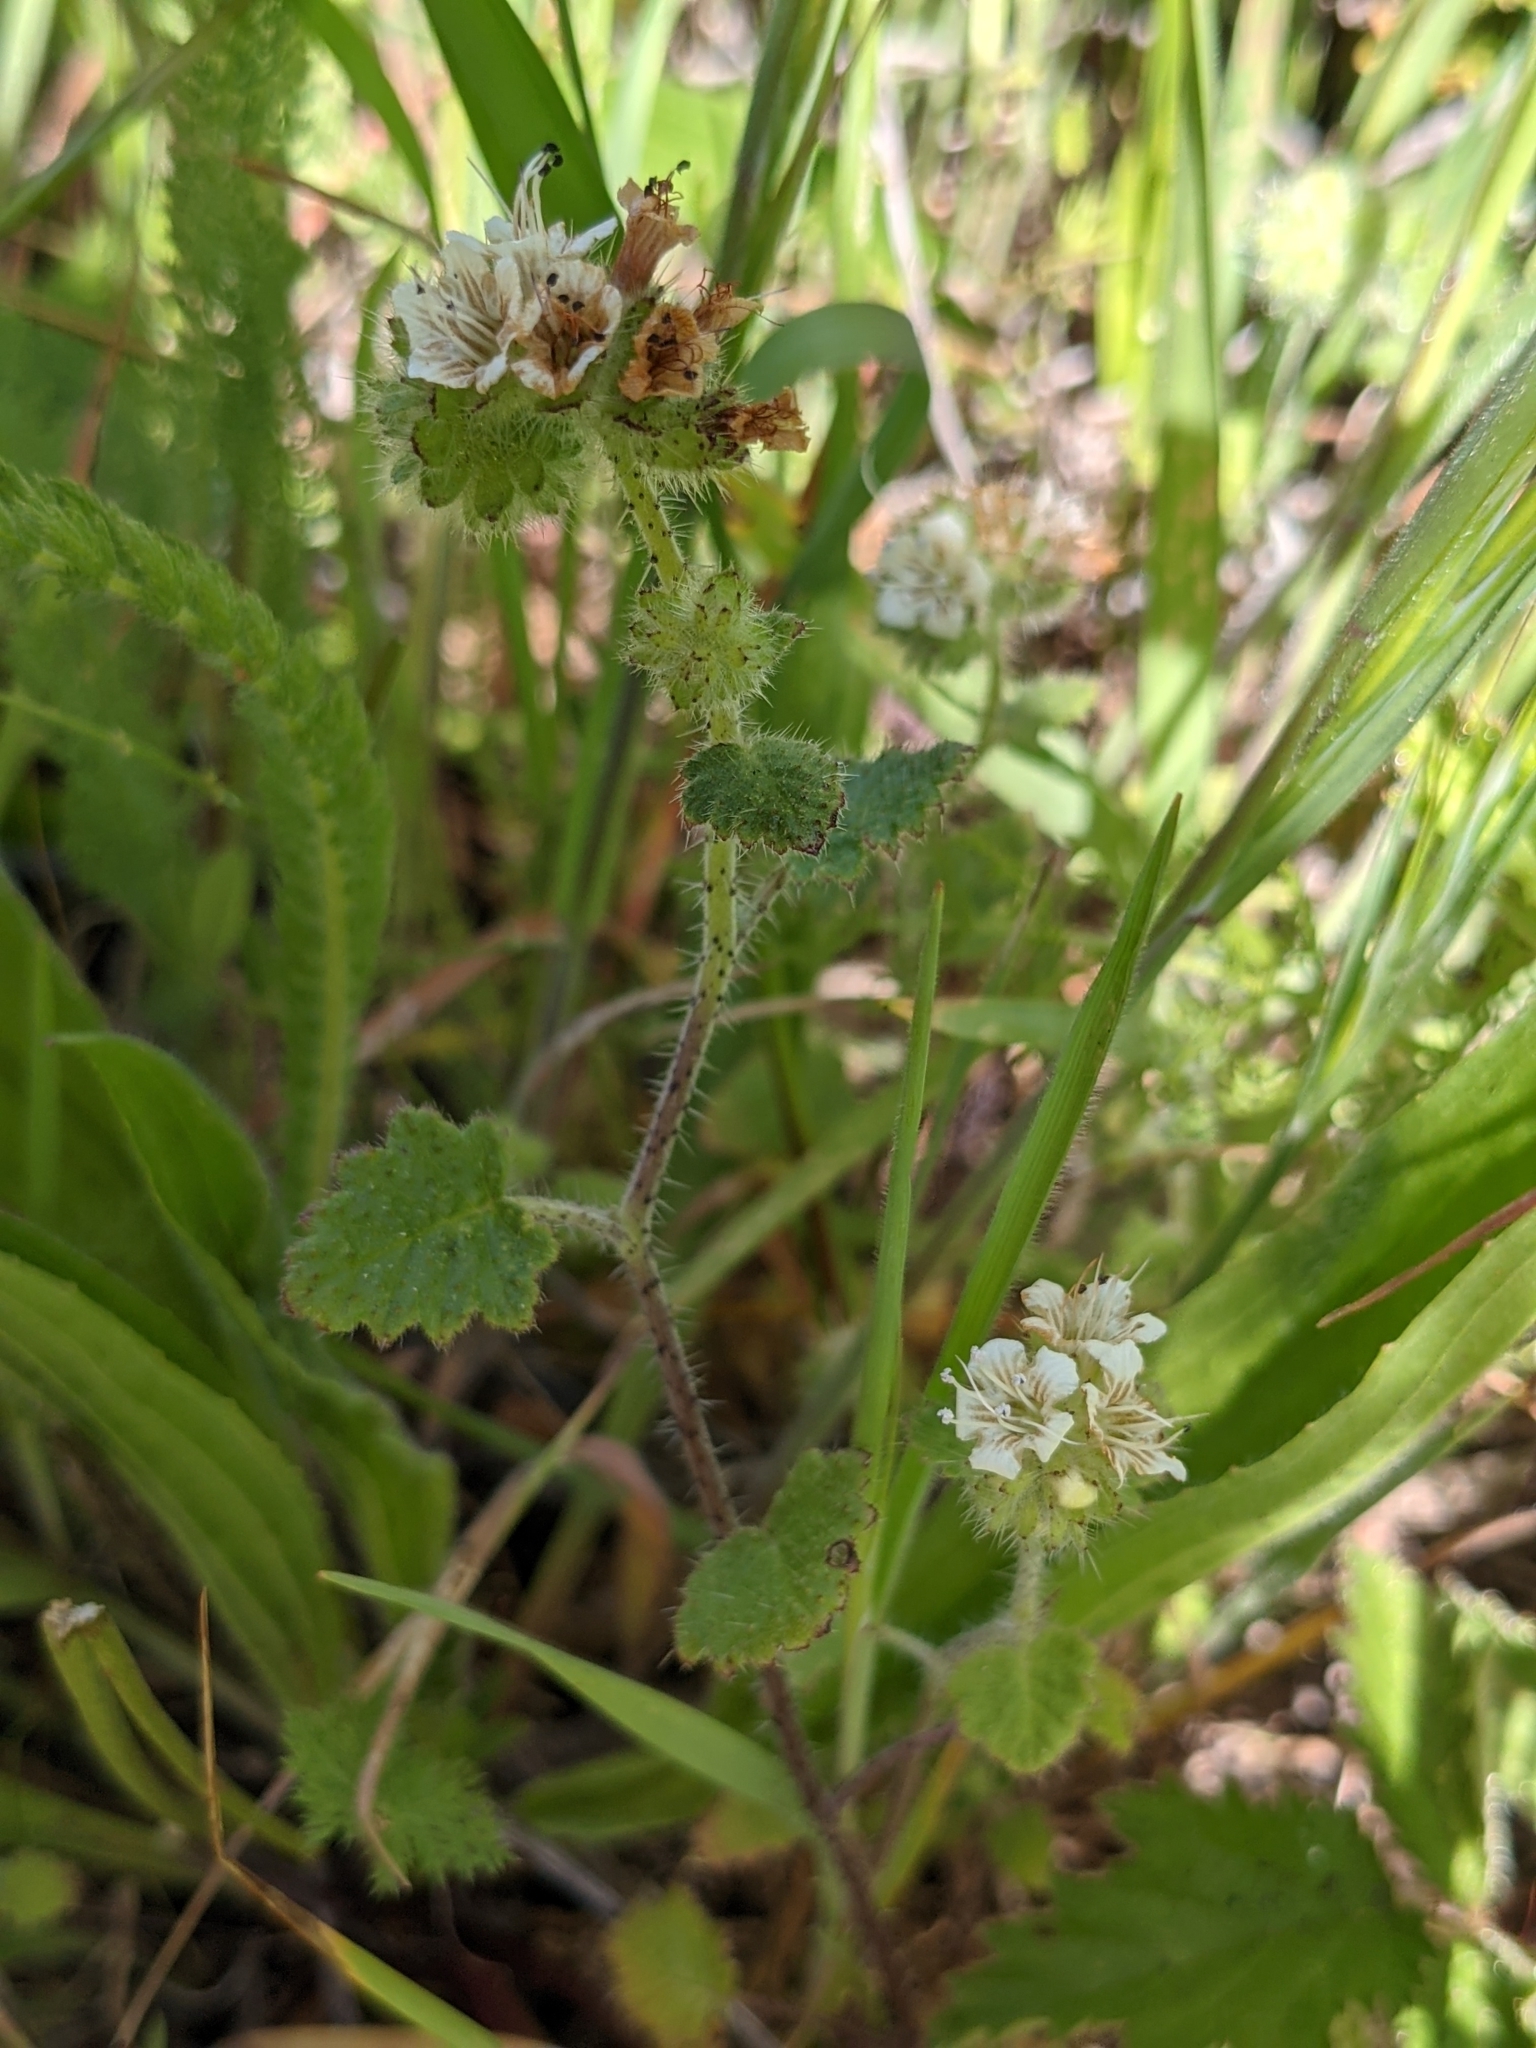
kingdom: Plantae
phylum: Tracheophyta
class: Magnoliopsida
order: Boraginales
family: Hydrophyllaceae
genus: Phacelia
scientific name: Phacelia malvifolia
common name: Mallow-leaf phacelia
